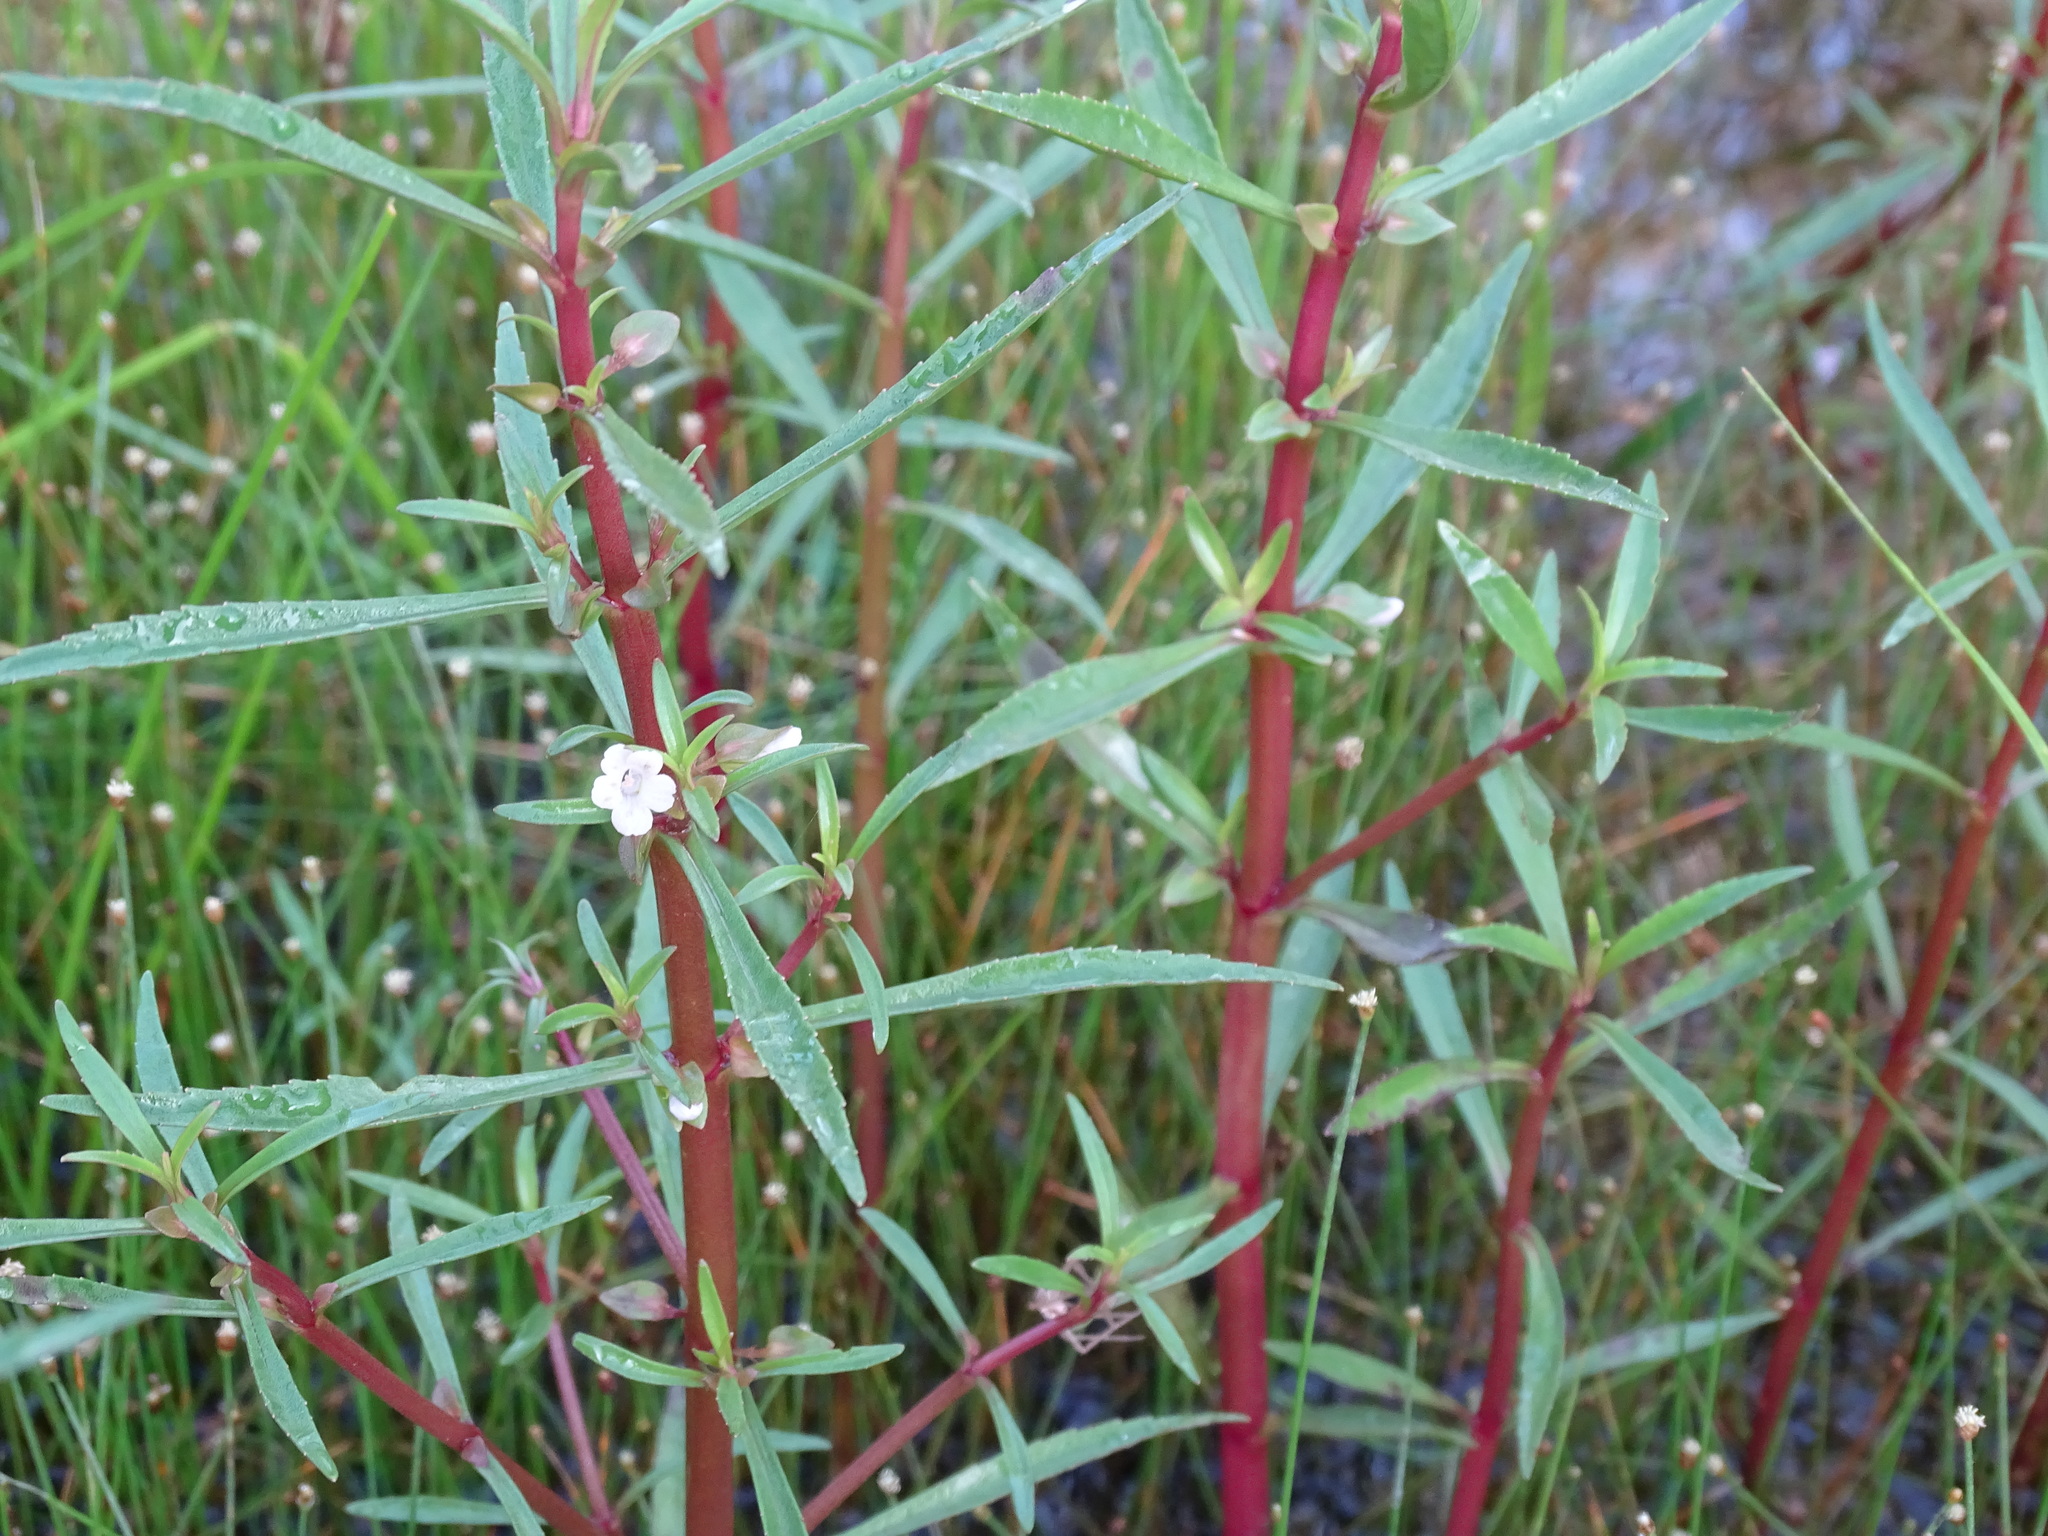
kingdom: Plantae
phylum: Tracheophyta
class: Magnoliopsida
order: Lamiales
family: Plantaginaceae
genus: Bacopa
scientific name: Bacopa lacertosa
